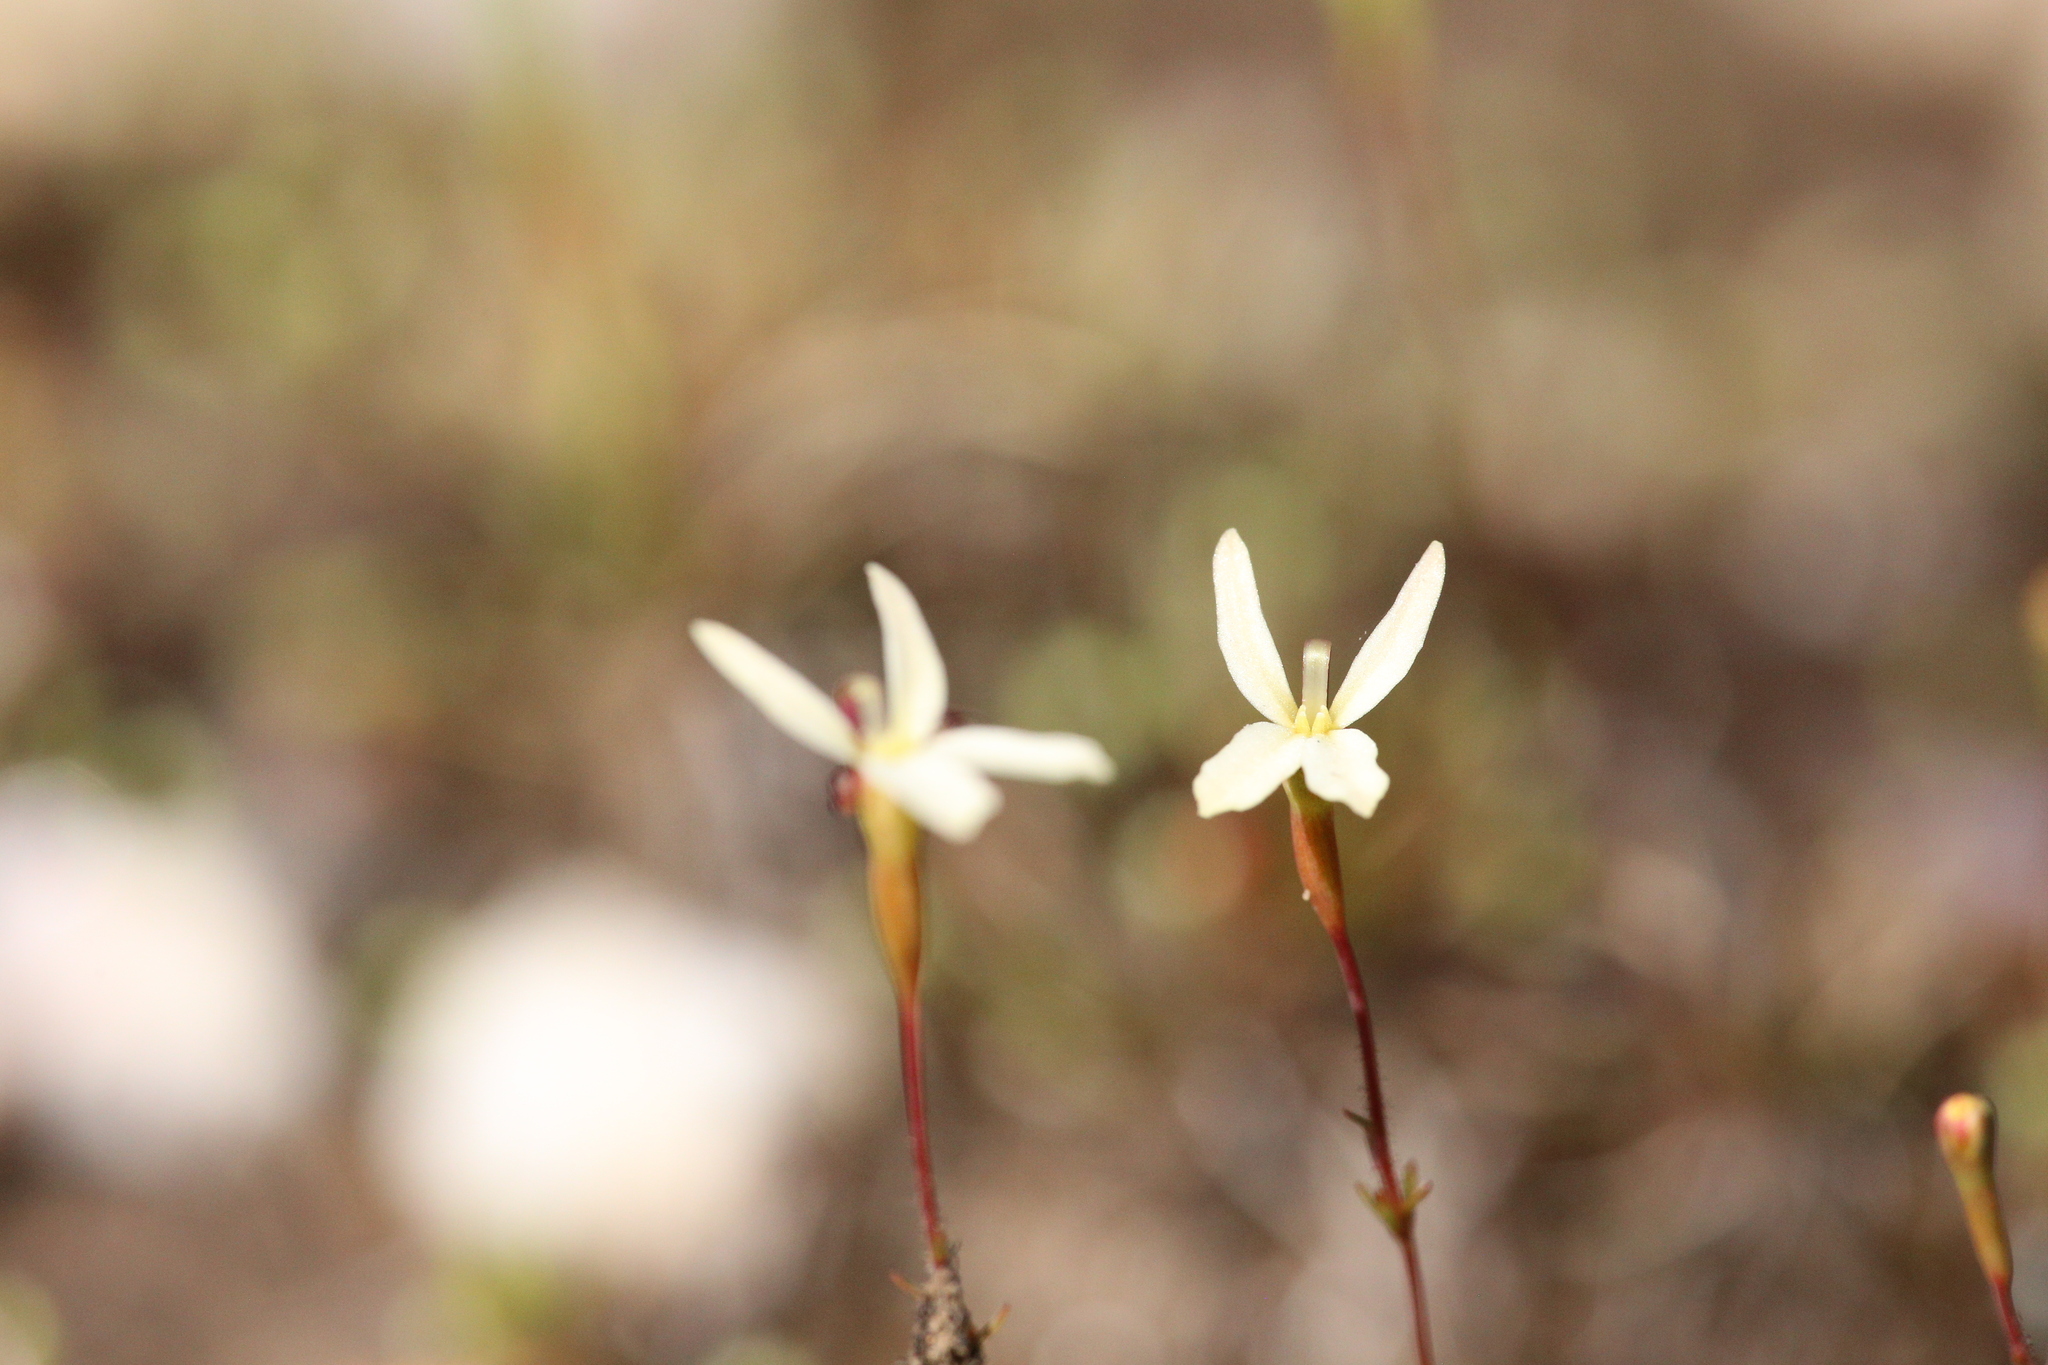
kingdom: Plantae
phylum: Tracheophyta
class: Magnoliopsida
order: Asterales
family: Stylidiaceae
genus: Stylidium
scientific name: Stylidium xanthellum
